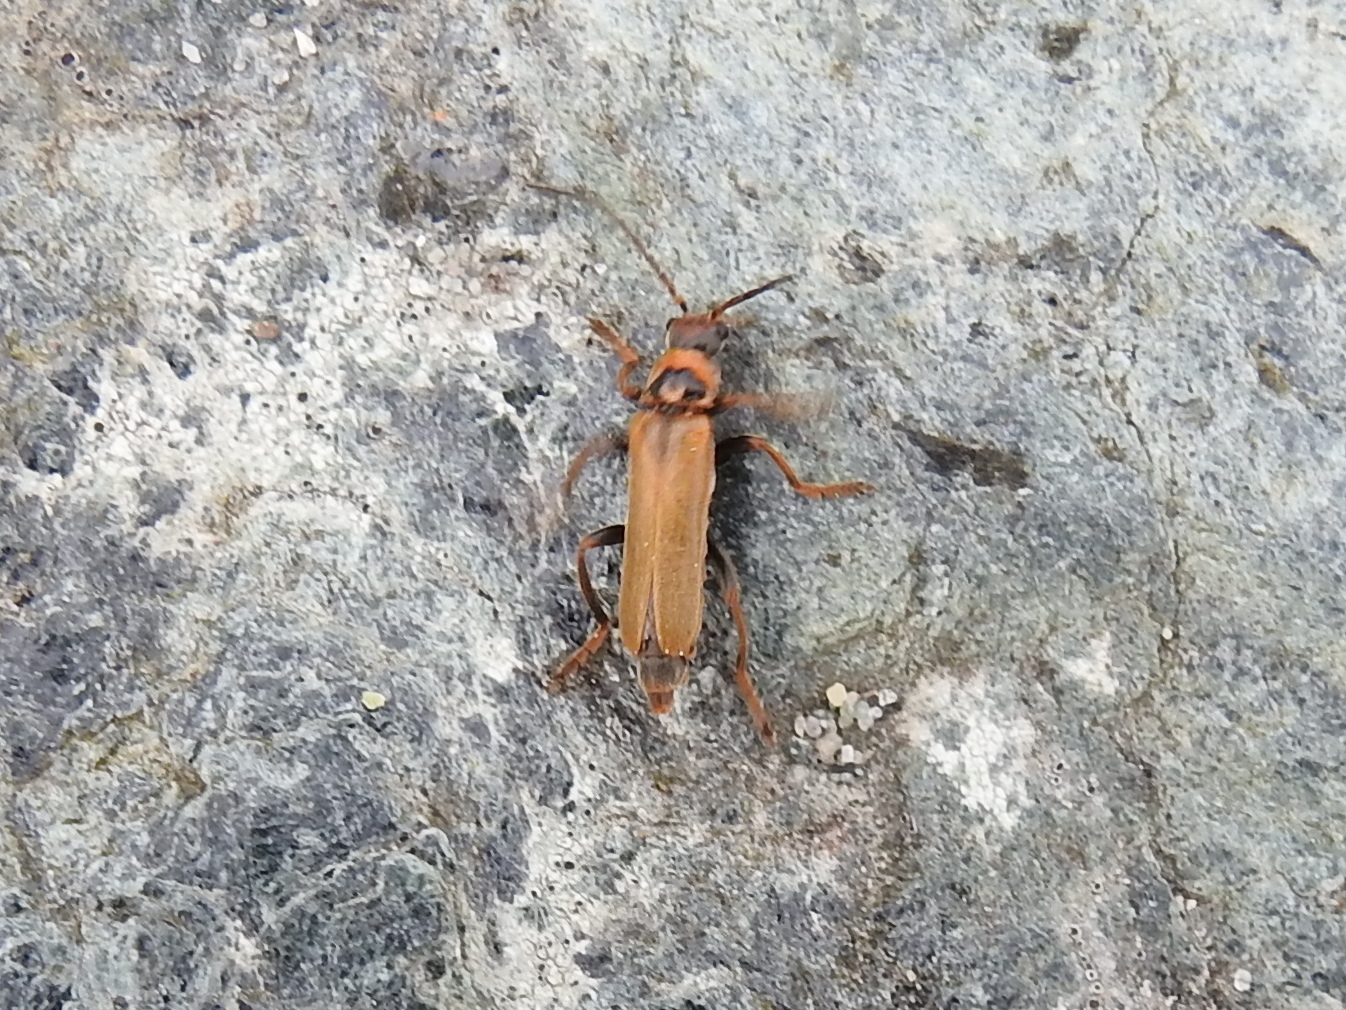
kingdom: Animalia
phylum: Arthropoda
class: Insecta
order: Coleoptera
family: Cantharidae
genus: Cantharis
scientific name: Cantharis rufa
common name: Red-spotted soldier beetle
